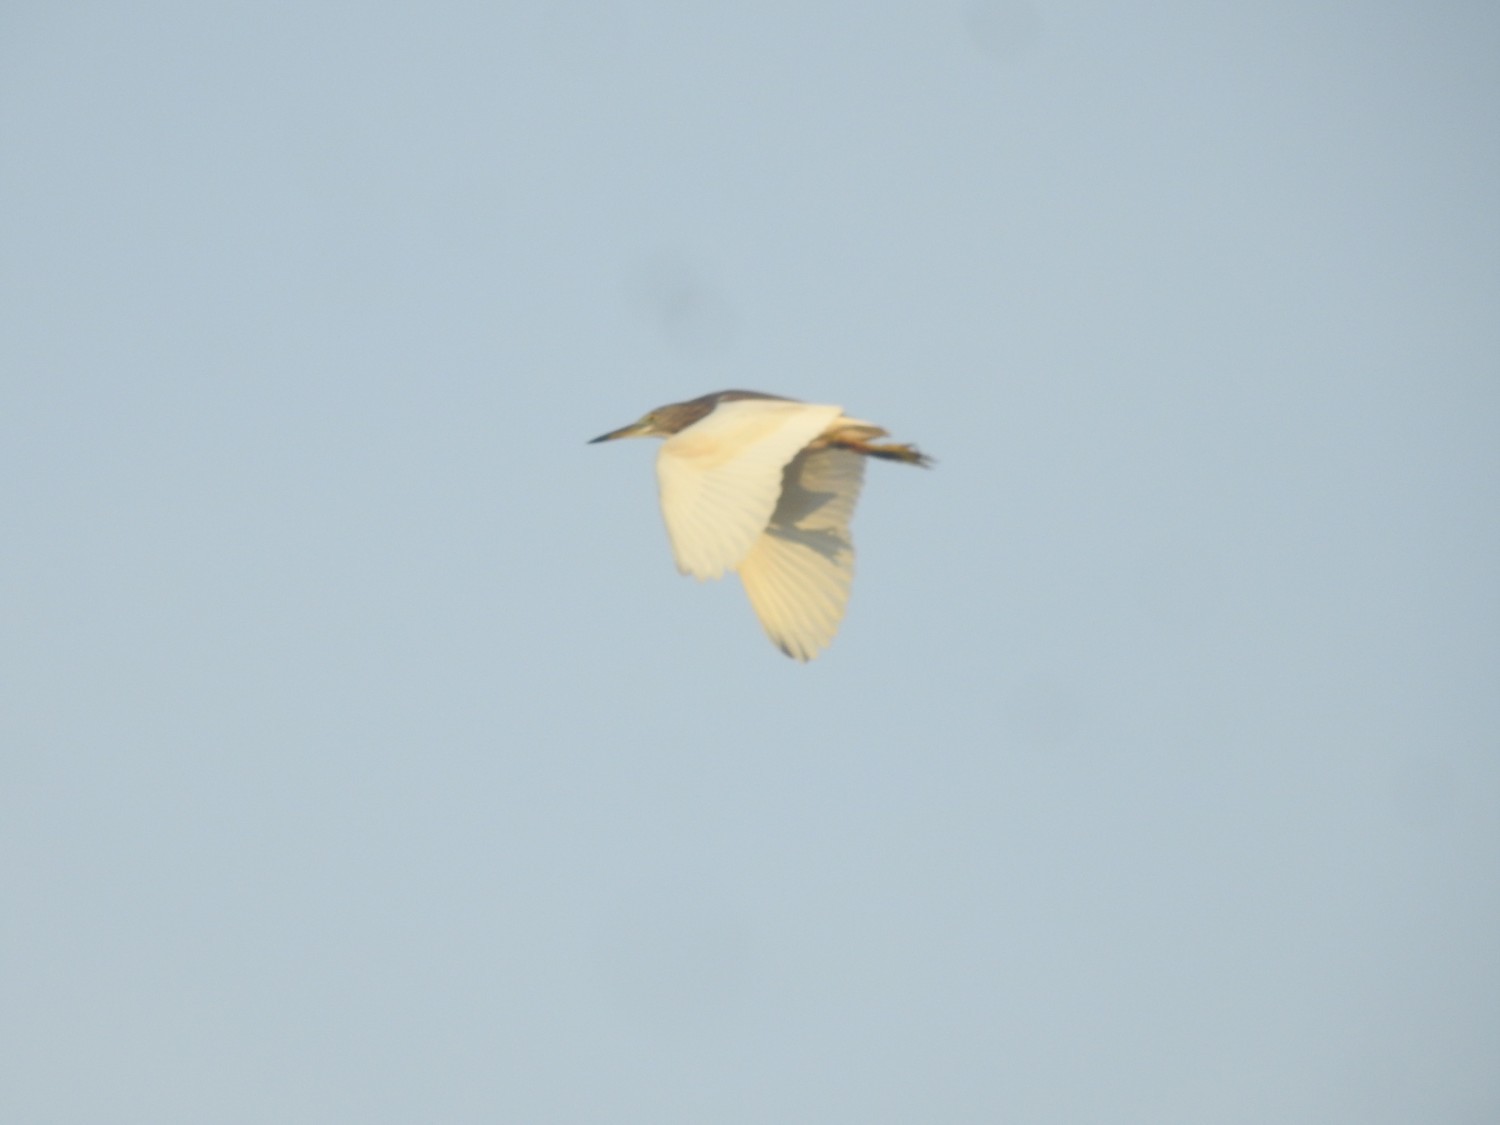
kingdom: Animalia
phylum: Chordata
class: Aves
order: Pelecaniformes
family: Ardeidae
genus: Ardeola
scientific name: Ardeola grayii
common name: Indian pond heron
